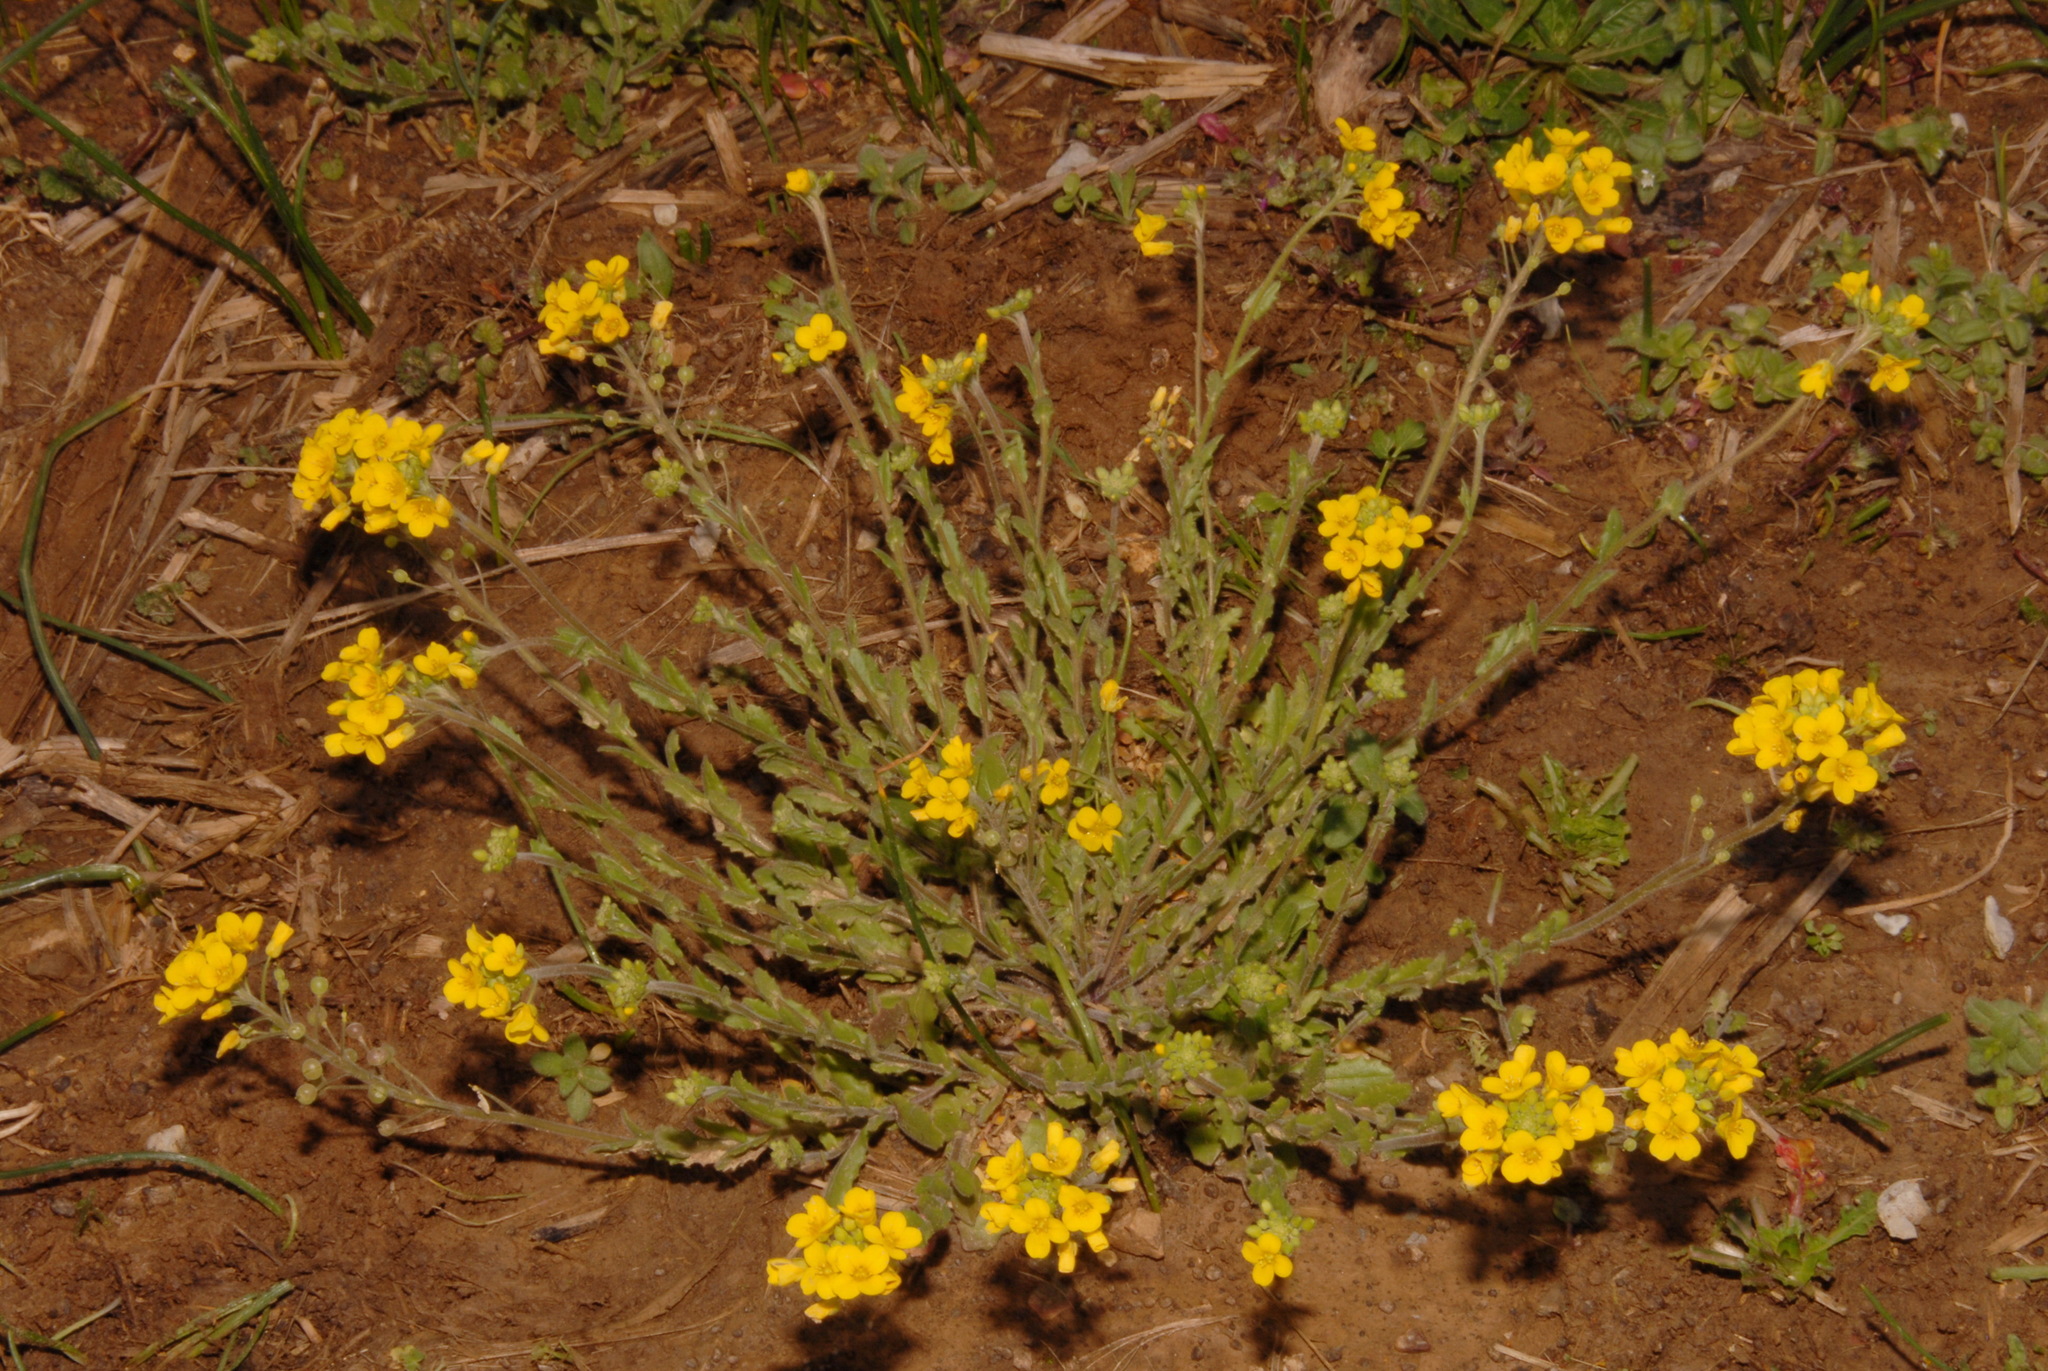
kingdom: Plantae
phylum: Tracheophyta
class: Magnoliopsida
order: Brassicales
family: Brassicaceae
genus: Paysonia
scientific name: Paysonia densipila
